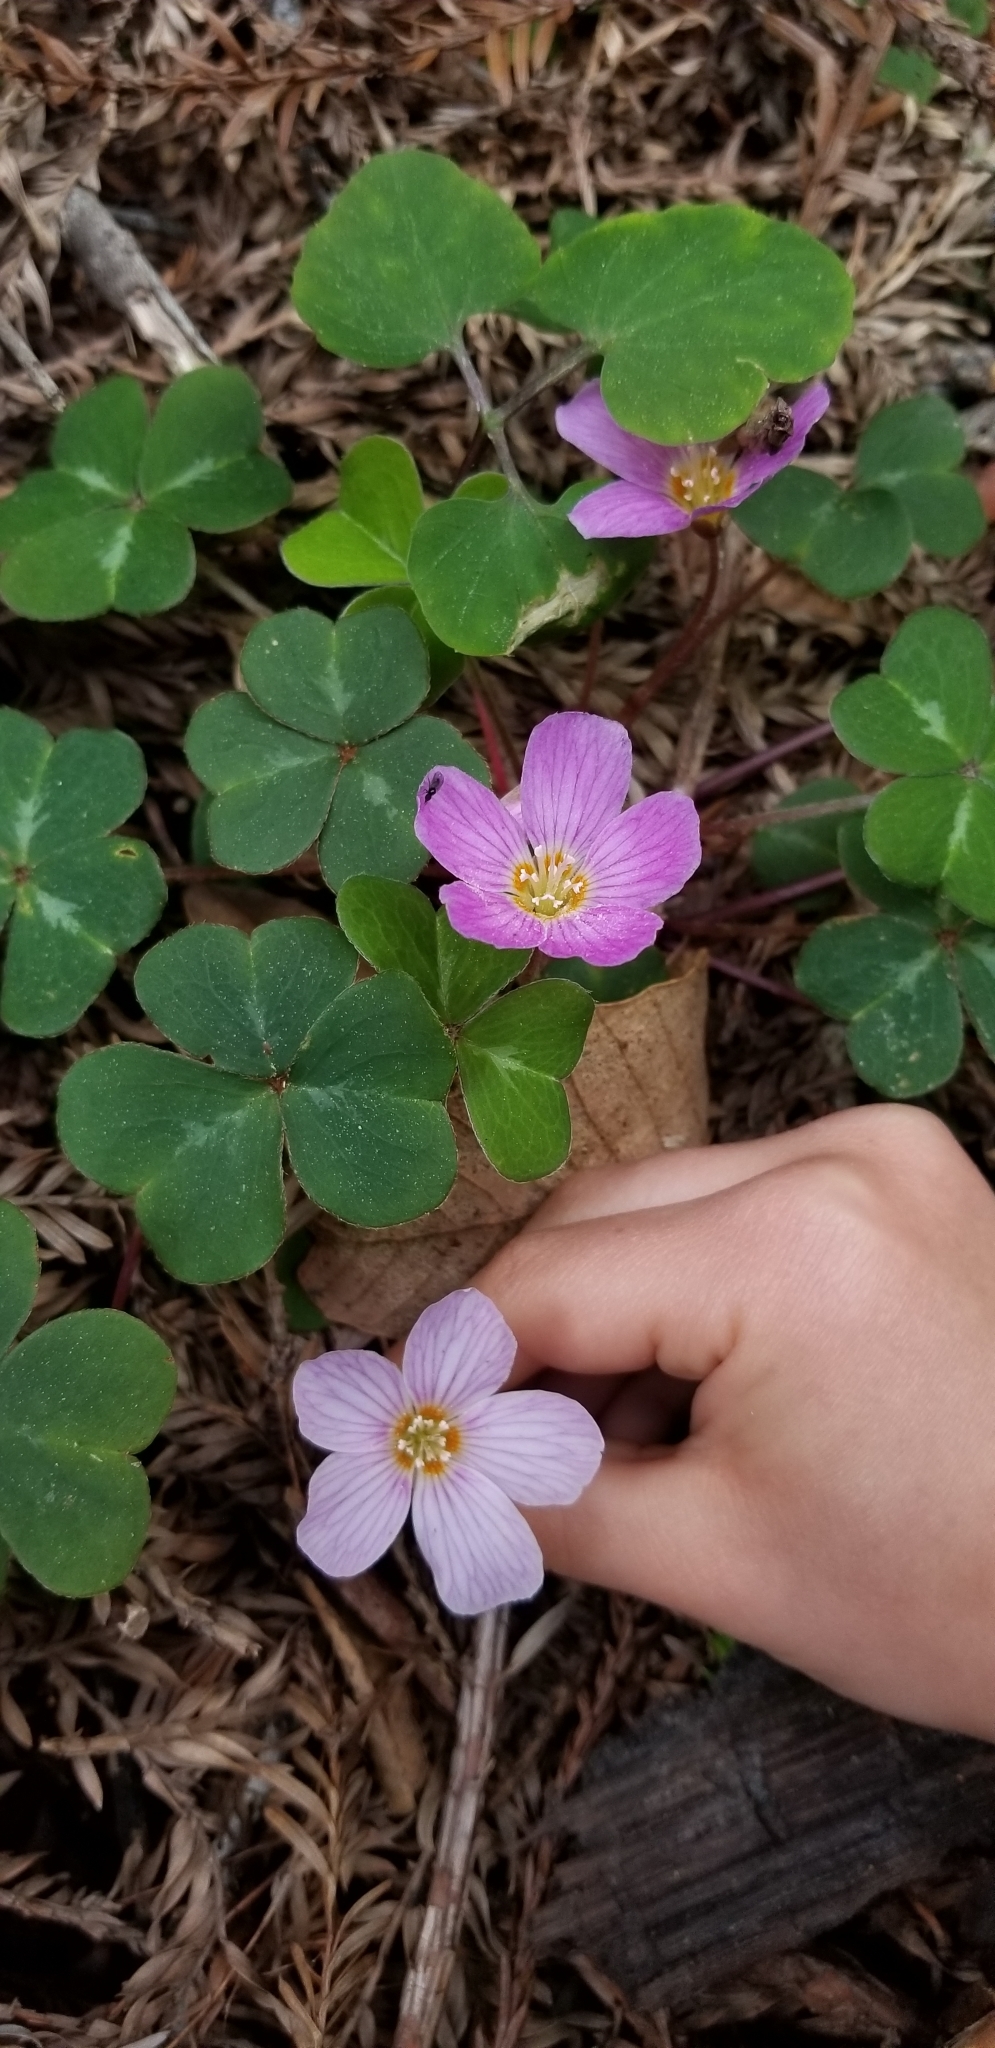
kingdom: Plantae
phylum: Tracheophyta
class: Magnoliopsida
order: Oxalidales
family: Oxalidaceae
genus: Oxalis
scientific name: Oxalis oregana
